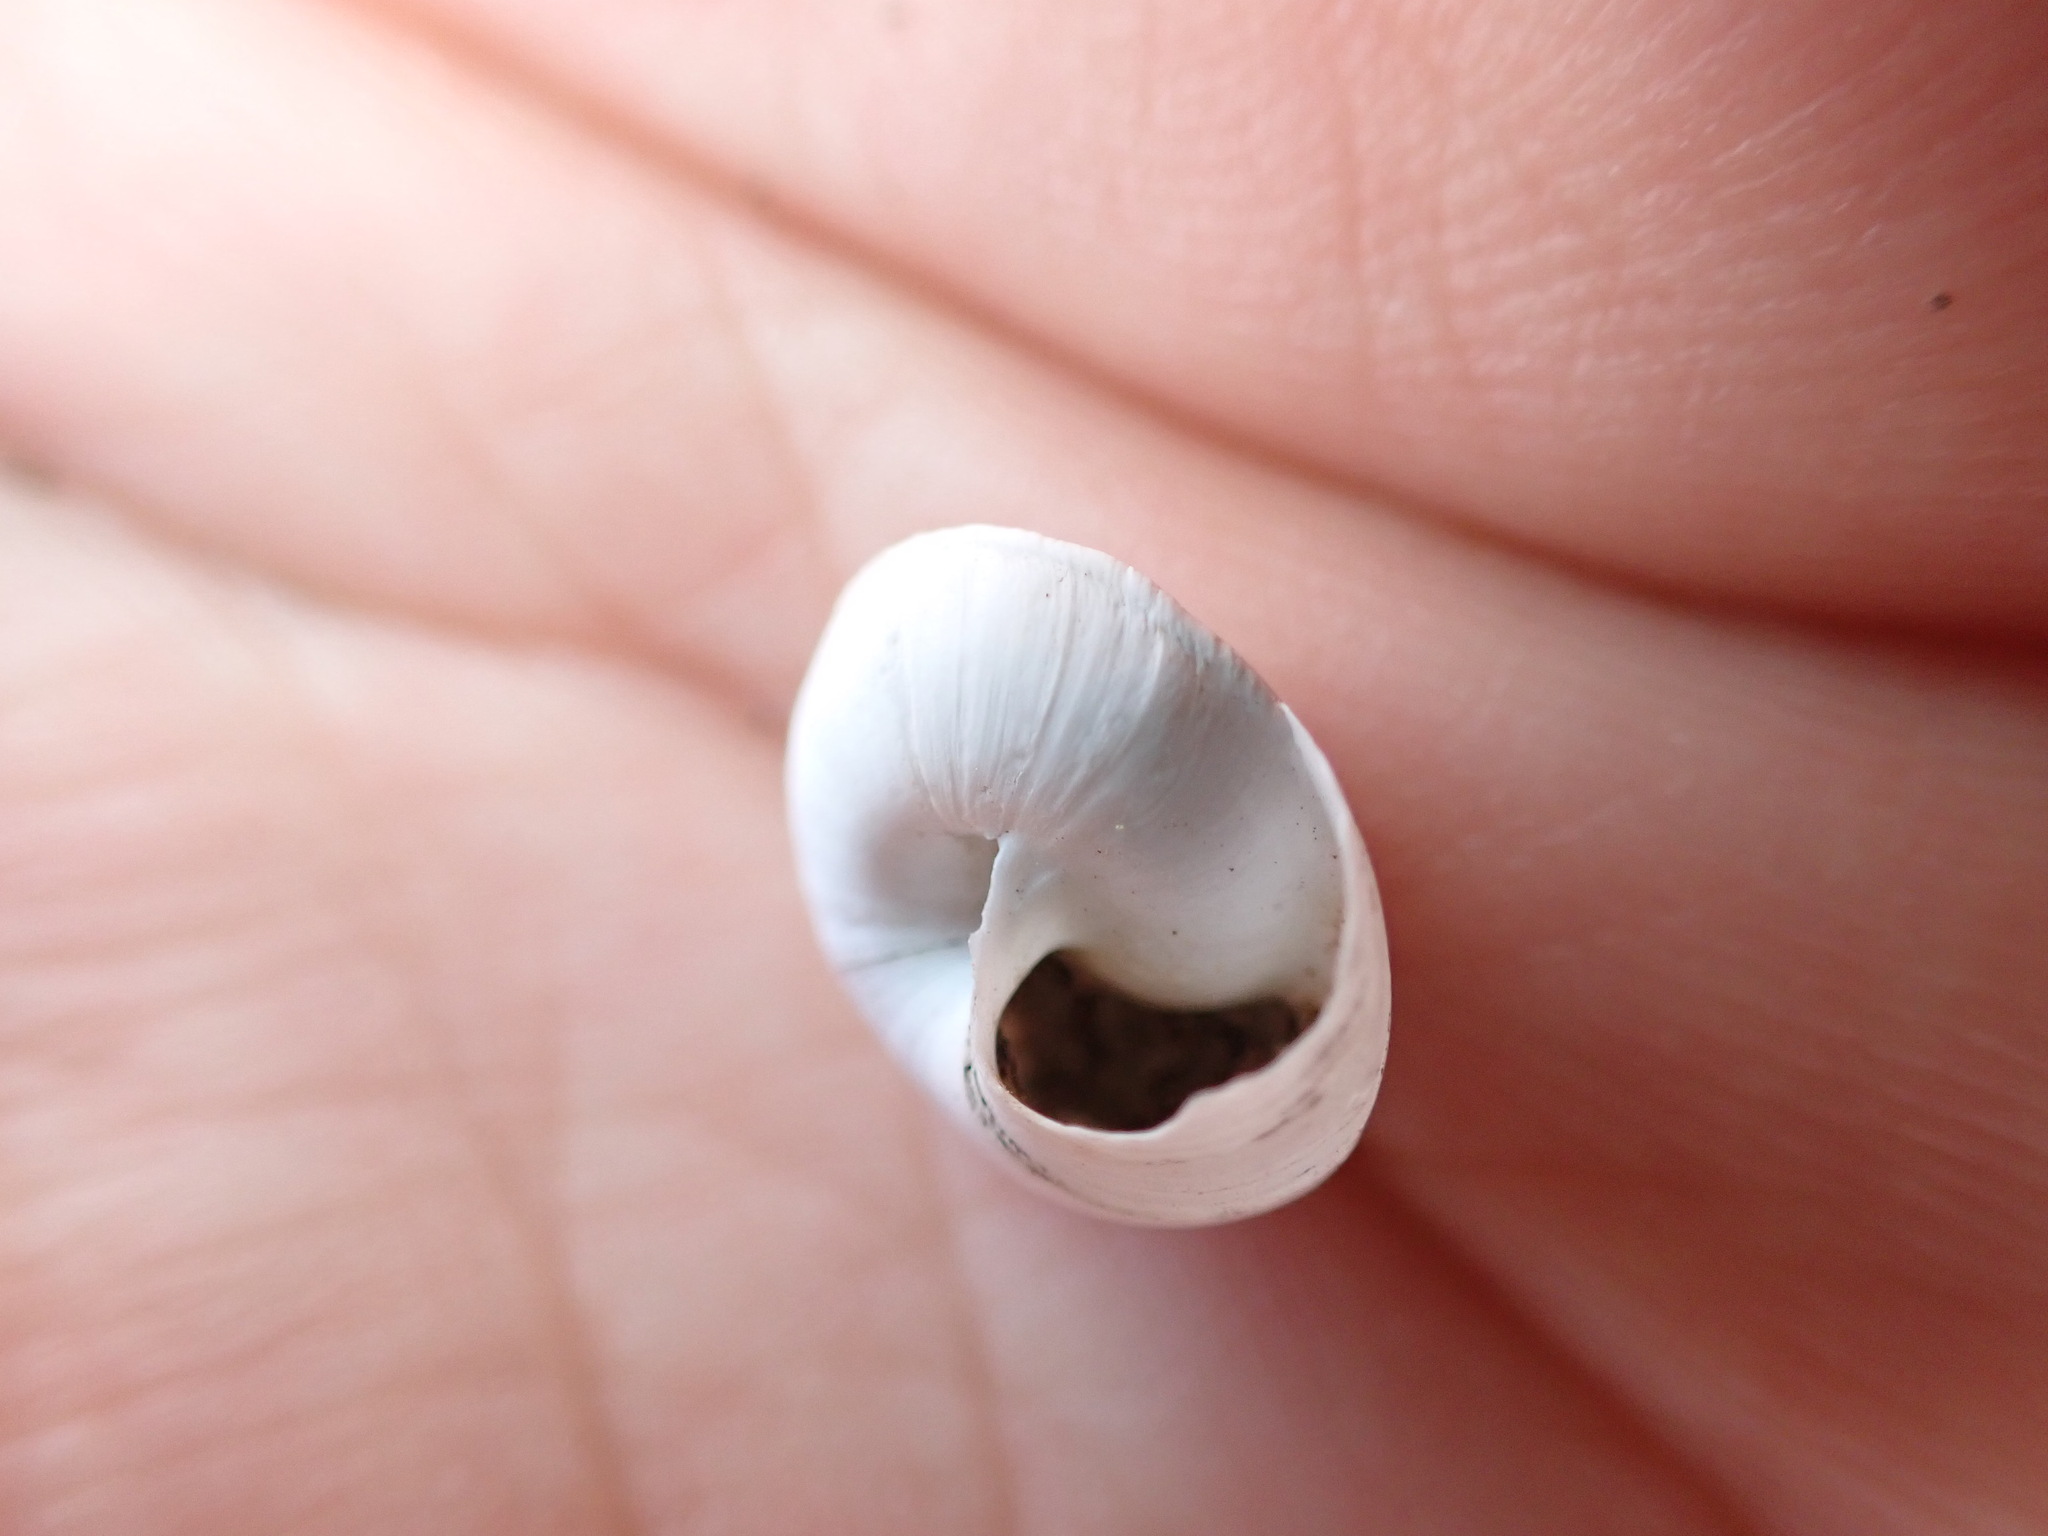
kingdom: Animalia
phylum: Mollusca
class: Gastropoda
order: Stylommatophora
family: Sphincterochilidae
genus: Sphincterochila
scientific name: Sphincterochila candidissima
